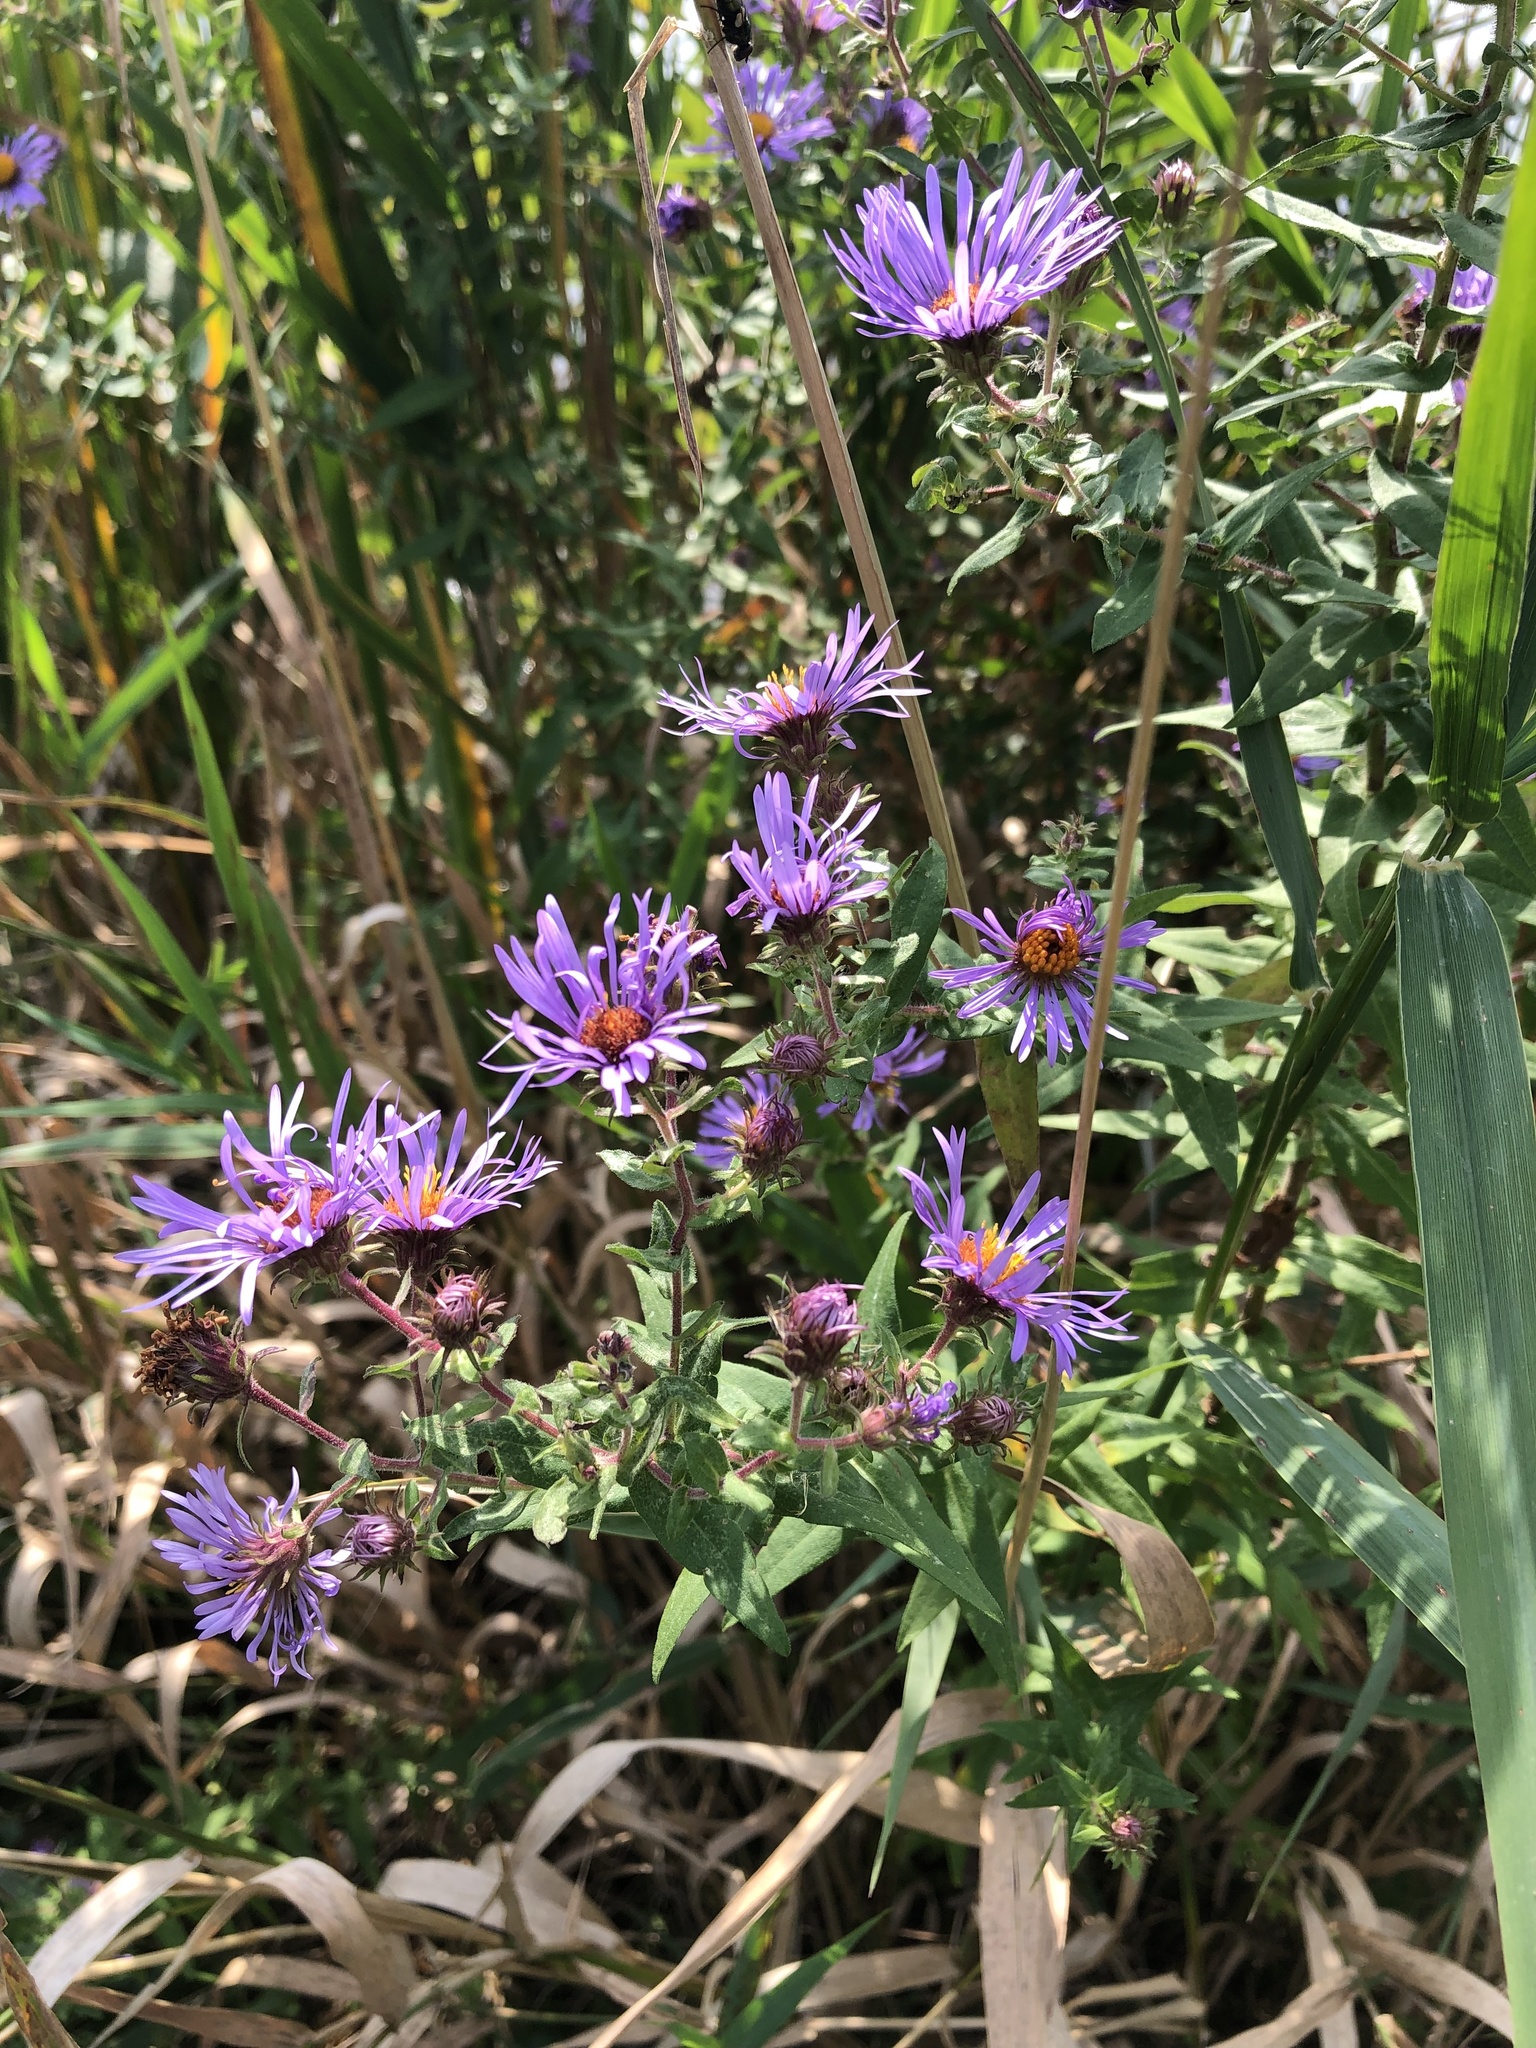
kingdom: Plantae
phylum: Tracheophyta
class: Magnoliopsida
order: Asterales
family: Asteraceae
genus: Symphyotrichum
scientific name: Symphyotrichum novae-angliae
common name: Michaelmas daisy
